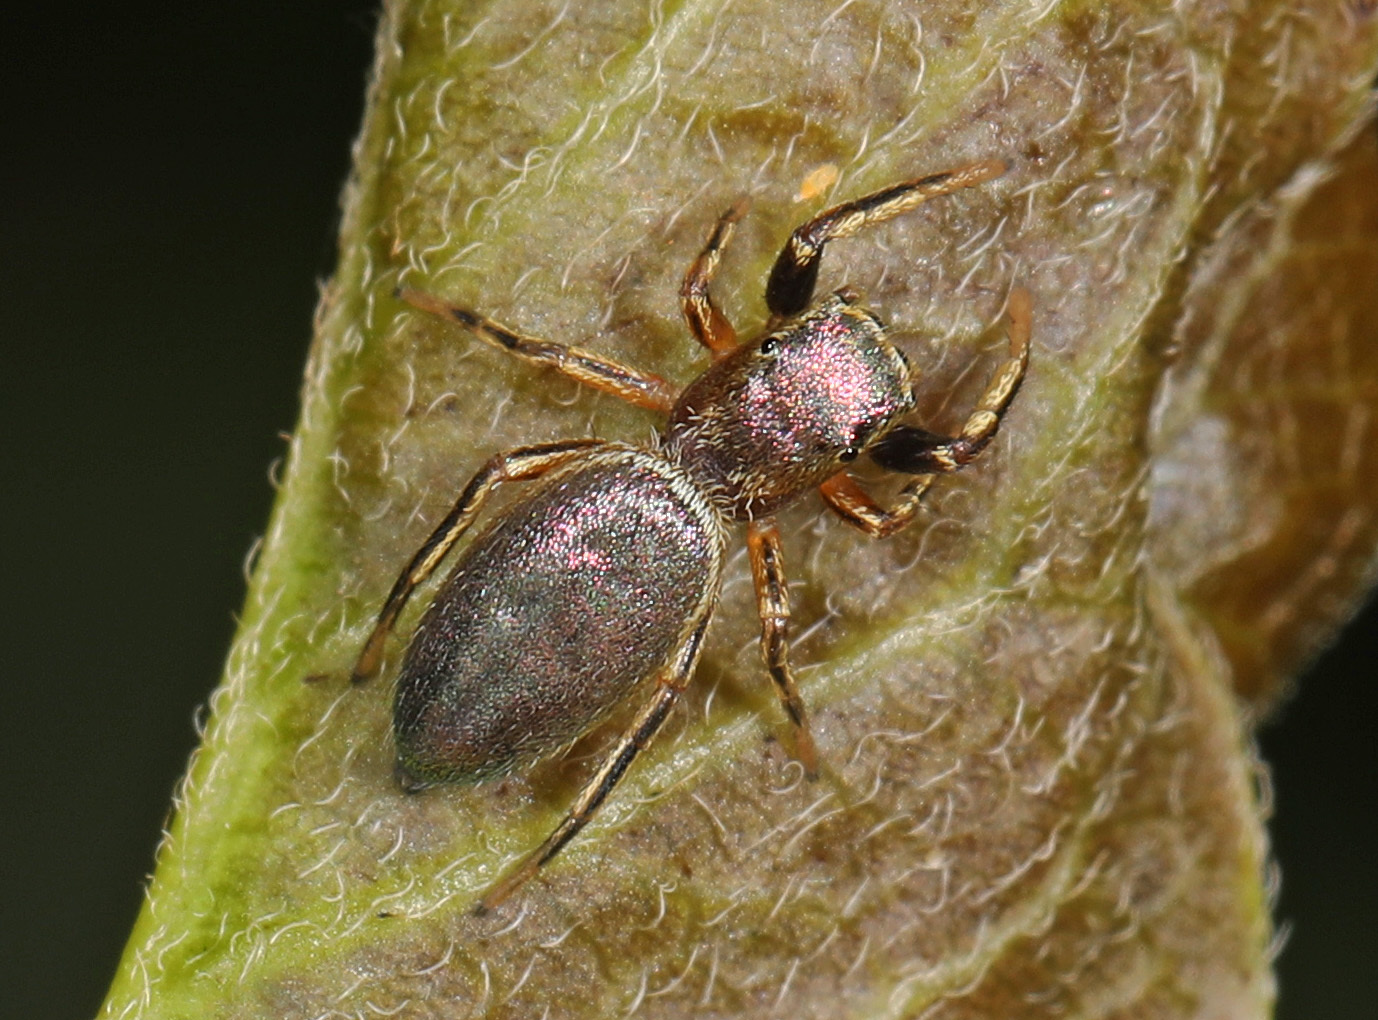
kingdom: Animalia
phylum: Arthropoda
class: Arachnida
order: Araneae
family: Salticidae
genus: Tutelina
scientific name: Tutelina elegans
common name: Thin-spined jumping spider
